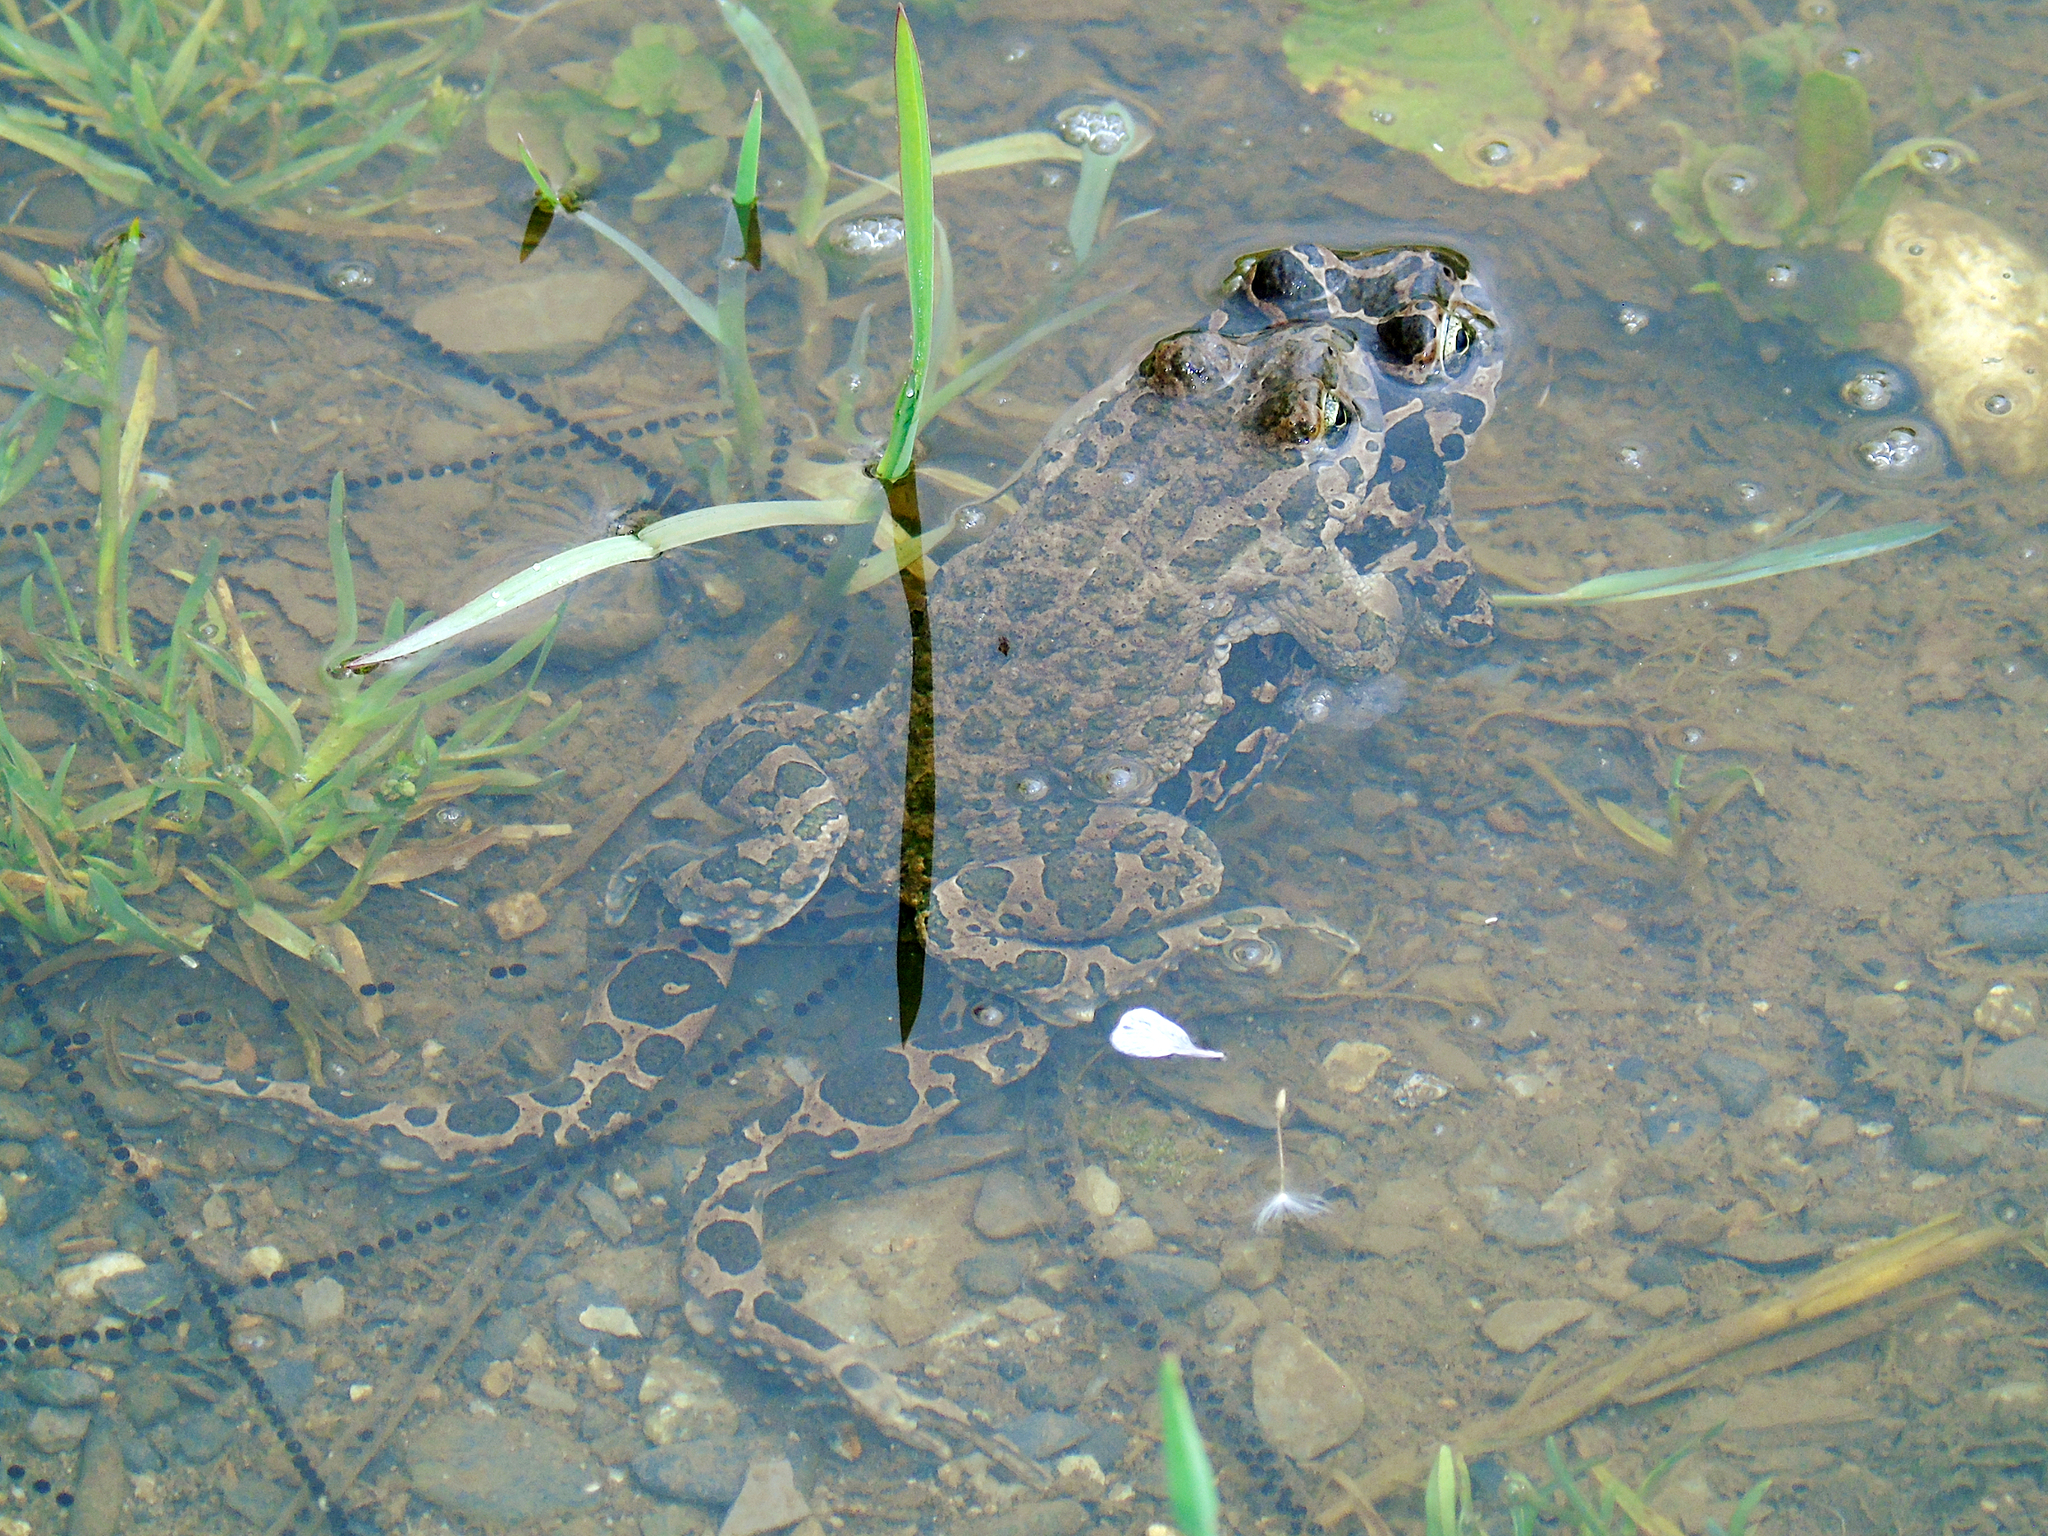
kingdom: Animalia
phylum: Chordata
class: Amphibia
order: Anura
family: Bufonidae
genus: Bufotes
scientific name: Bufotes viridis
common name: European green toad
